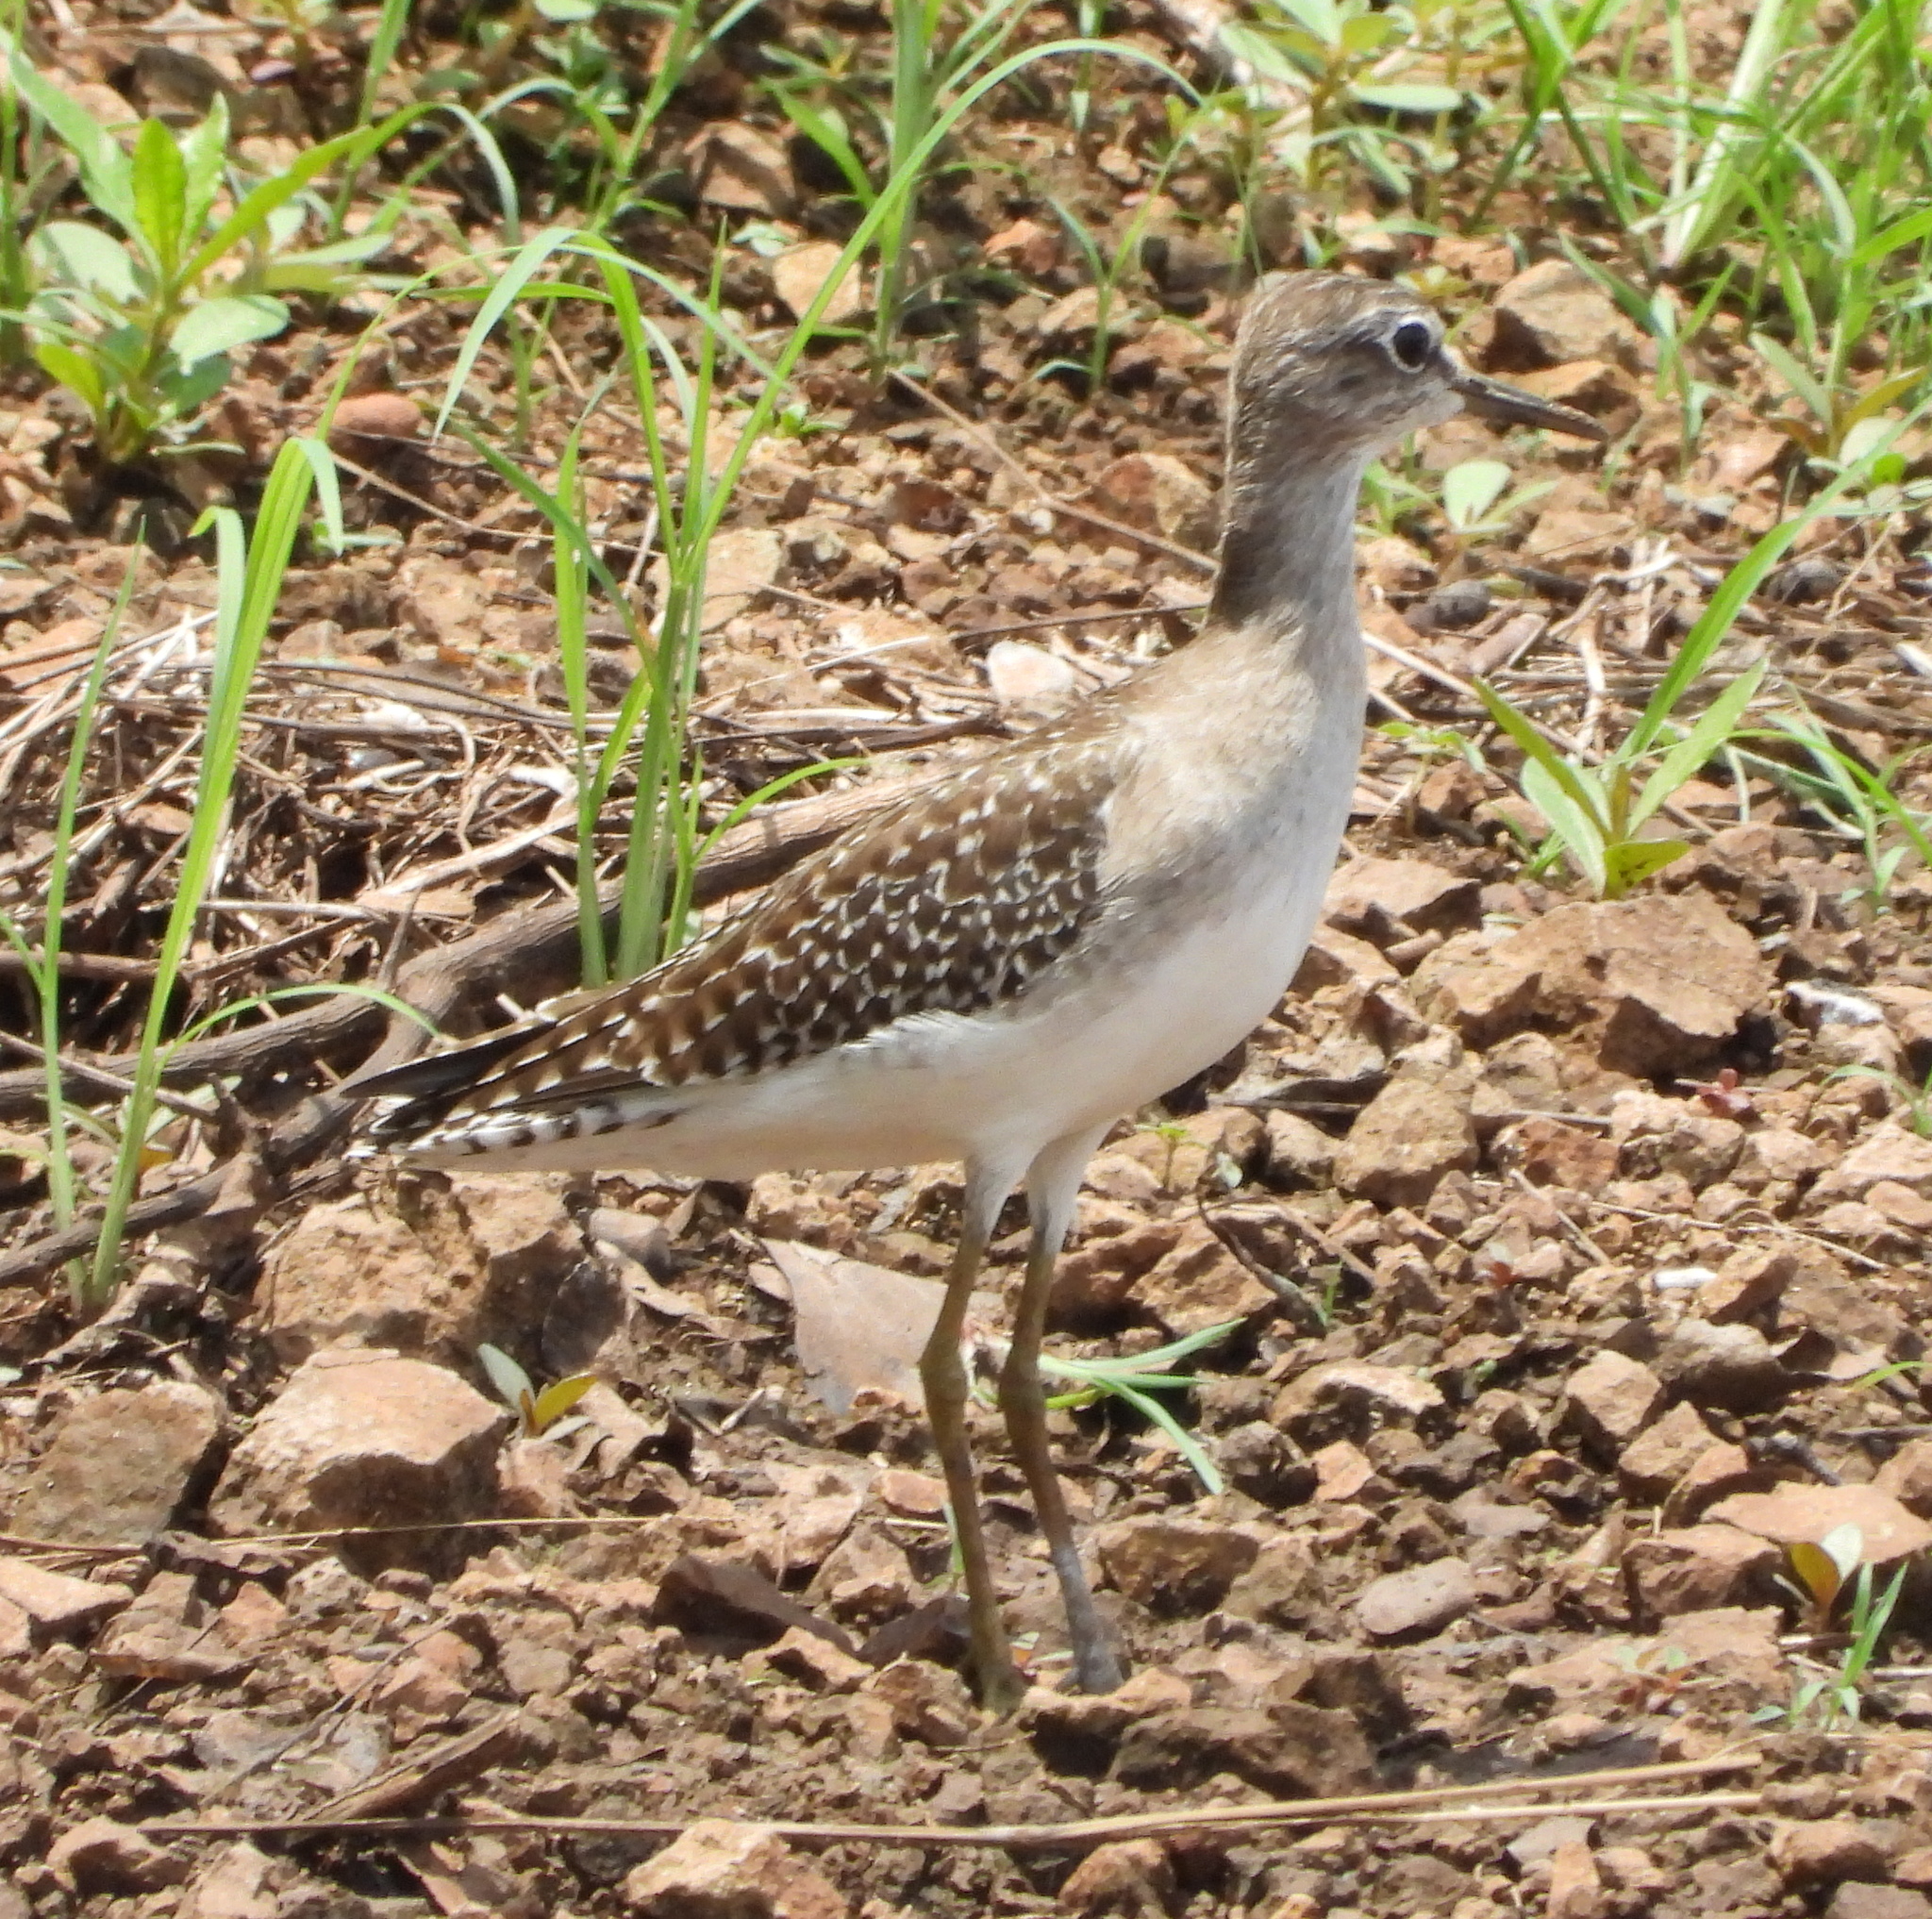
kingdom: Animalia
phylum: Chordata
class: Aves
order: Charadriiformes
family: Scolopacidae
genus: Tringa
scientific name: Tringa glareola
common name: Wood sandpiper
